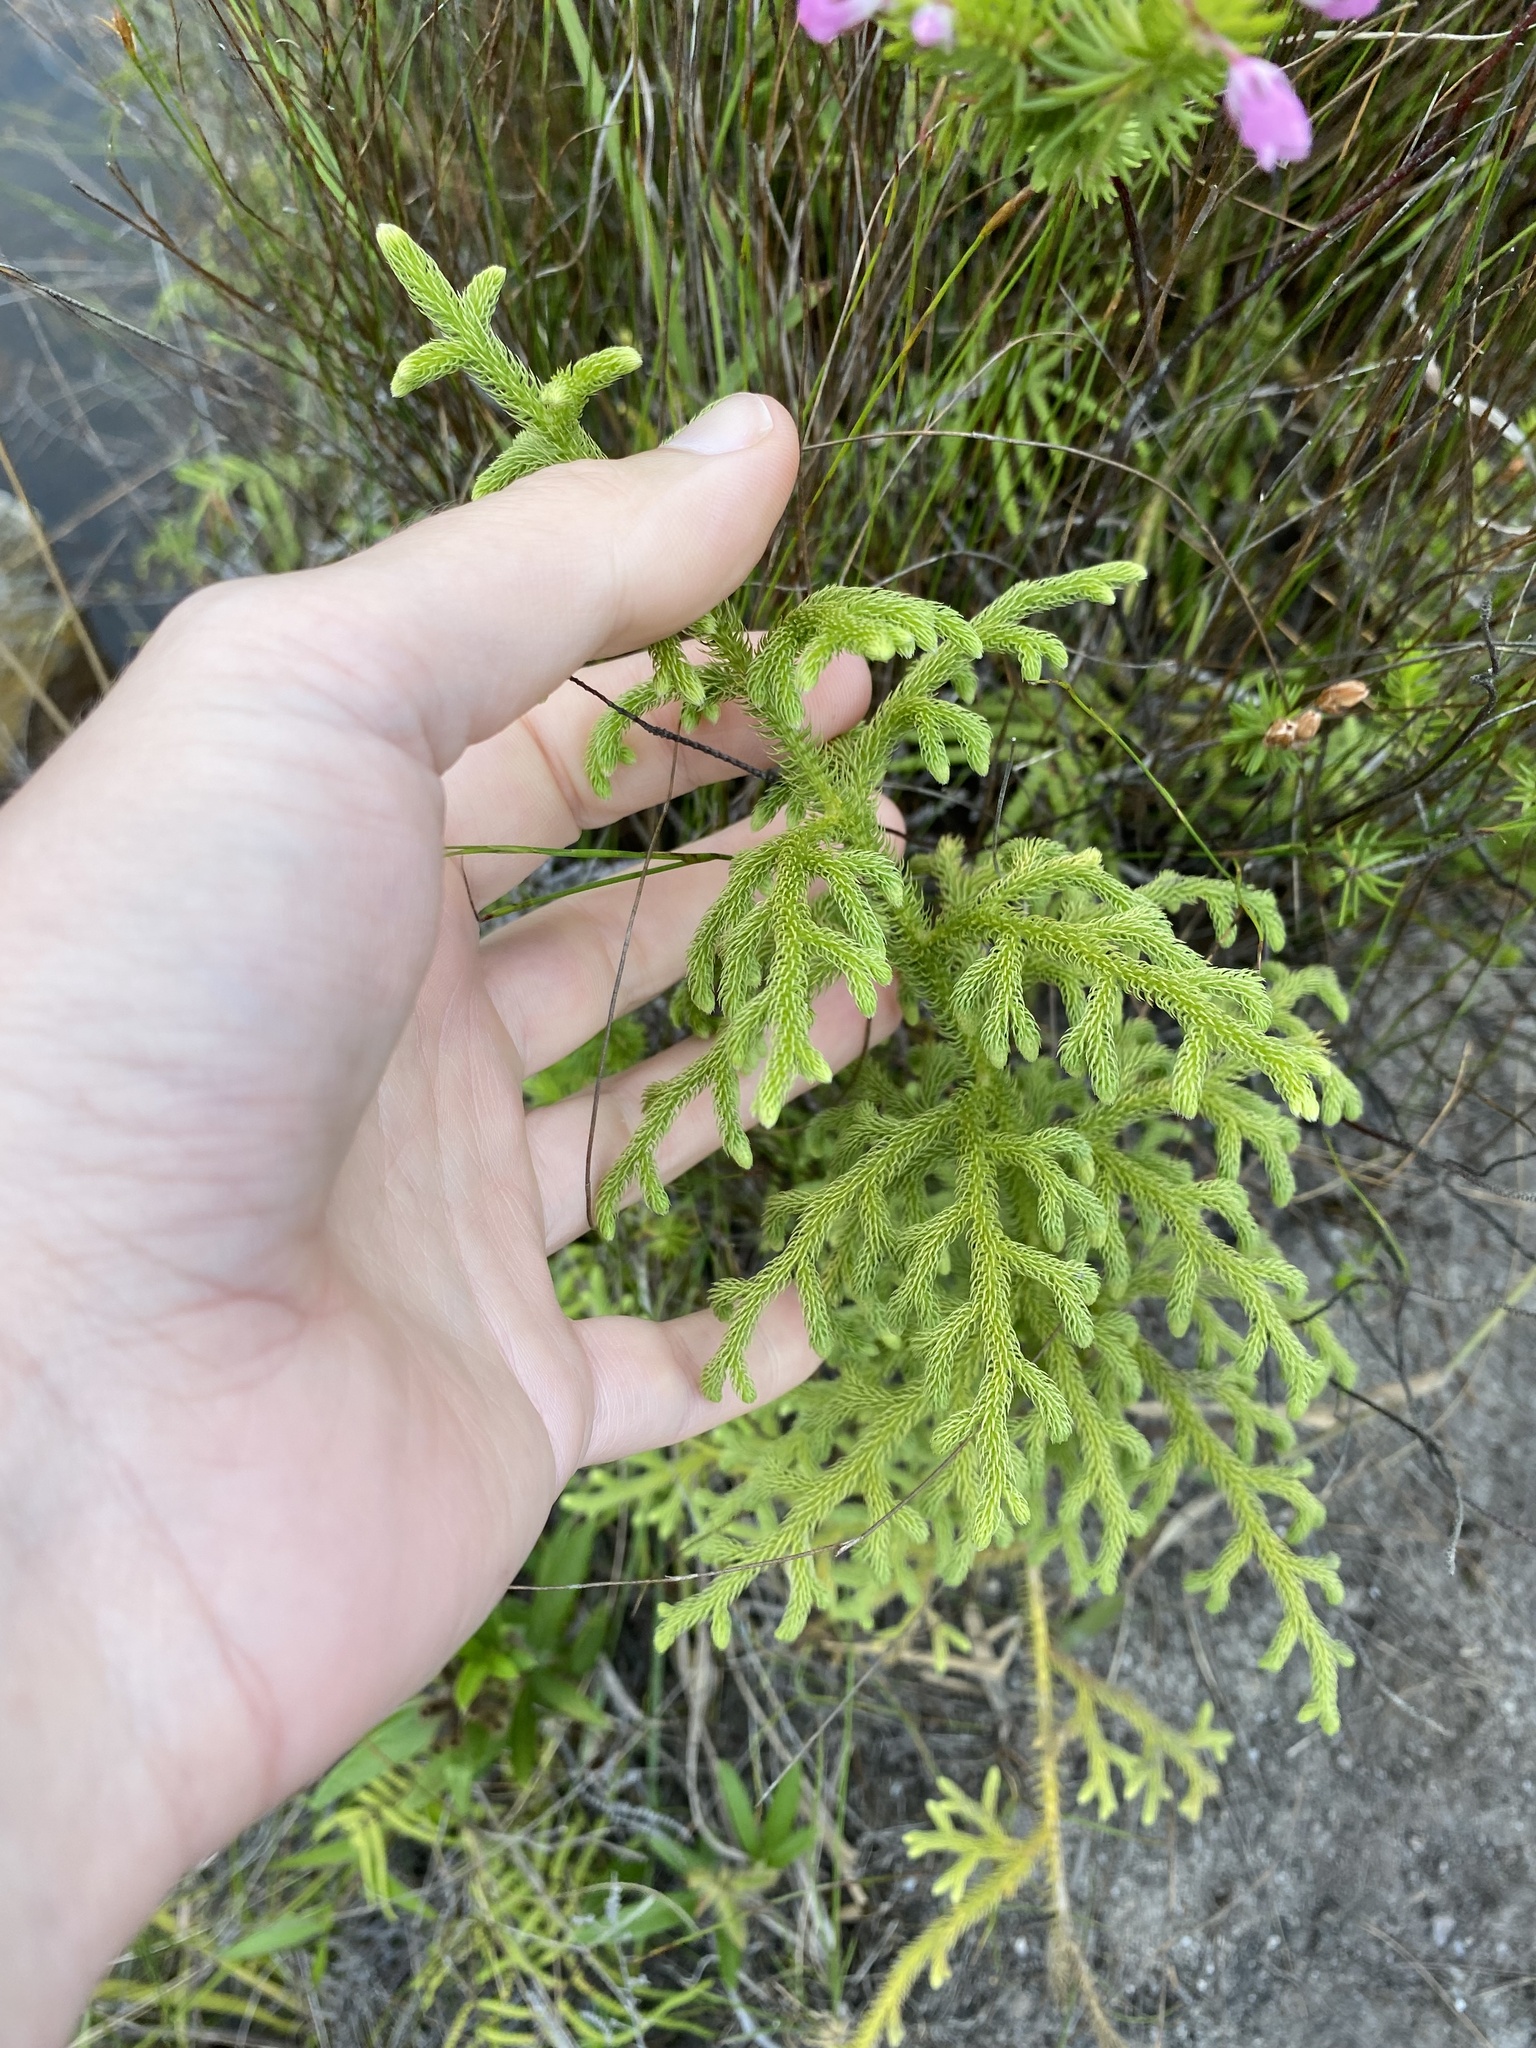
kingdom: Plantae
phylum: Tracheophyta
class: Lycopodiopsida
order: Lycopodiales
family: Lycopodiaceae
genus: Palhinhaea
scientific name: Palhinhaea cernua
